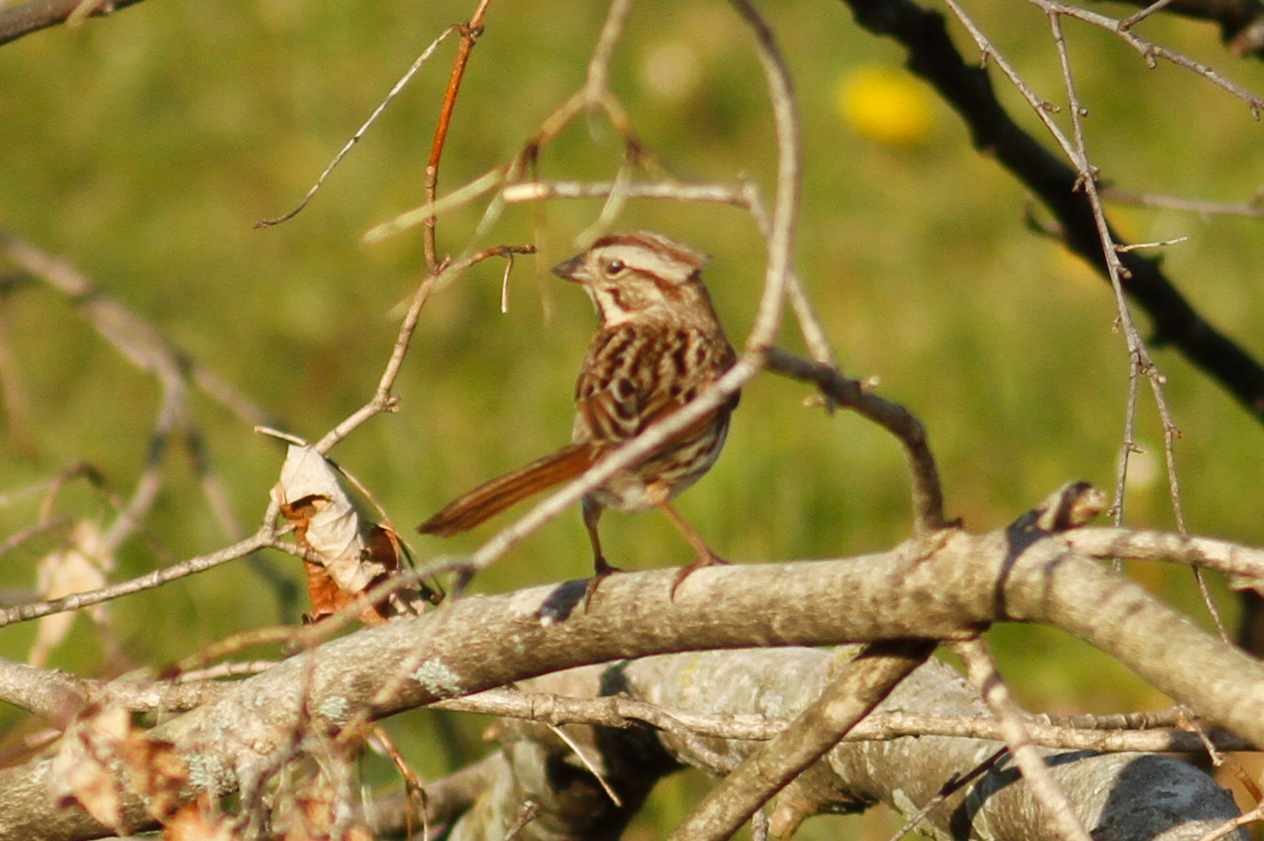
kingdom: Animalia
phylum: Chordata
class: Aves
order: Passeriformes
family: Passerellidae
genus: Melospiza
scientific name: Melospiza melodia
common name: Song sparrow
